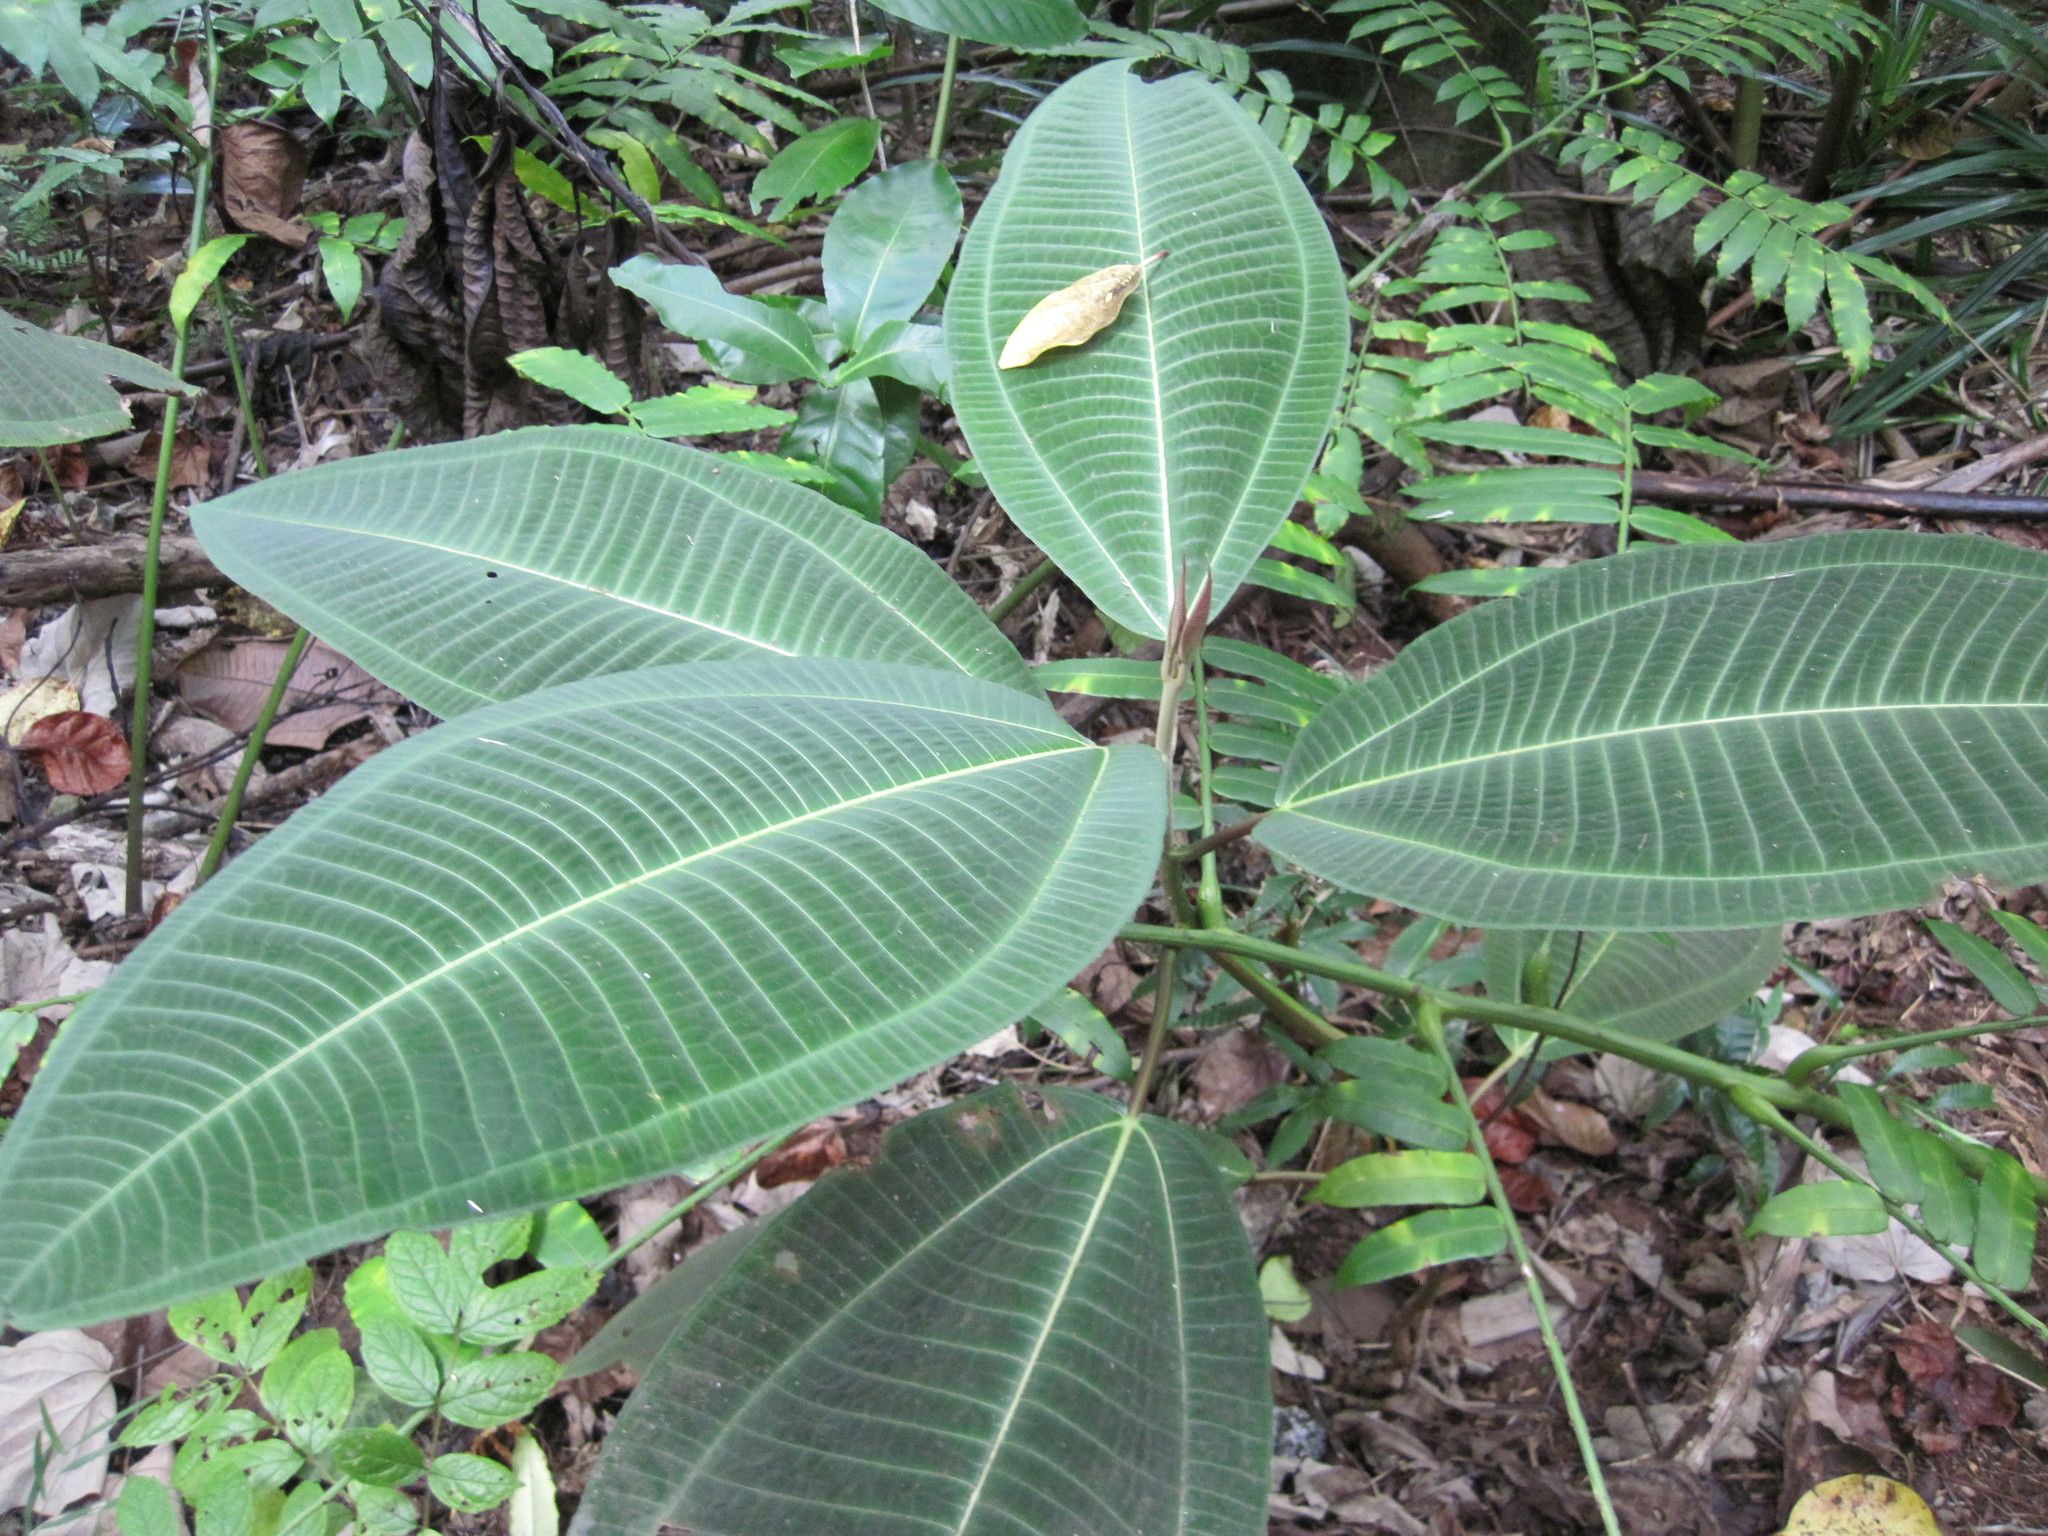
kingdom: Plantae
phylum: Tracheophyta
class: Magnoliopsida
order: Myrtales
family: Melastomataceae
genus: Miconia
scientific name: Miconia calvescens
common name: Purple plague
